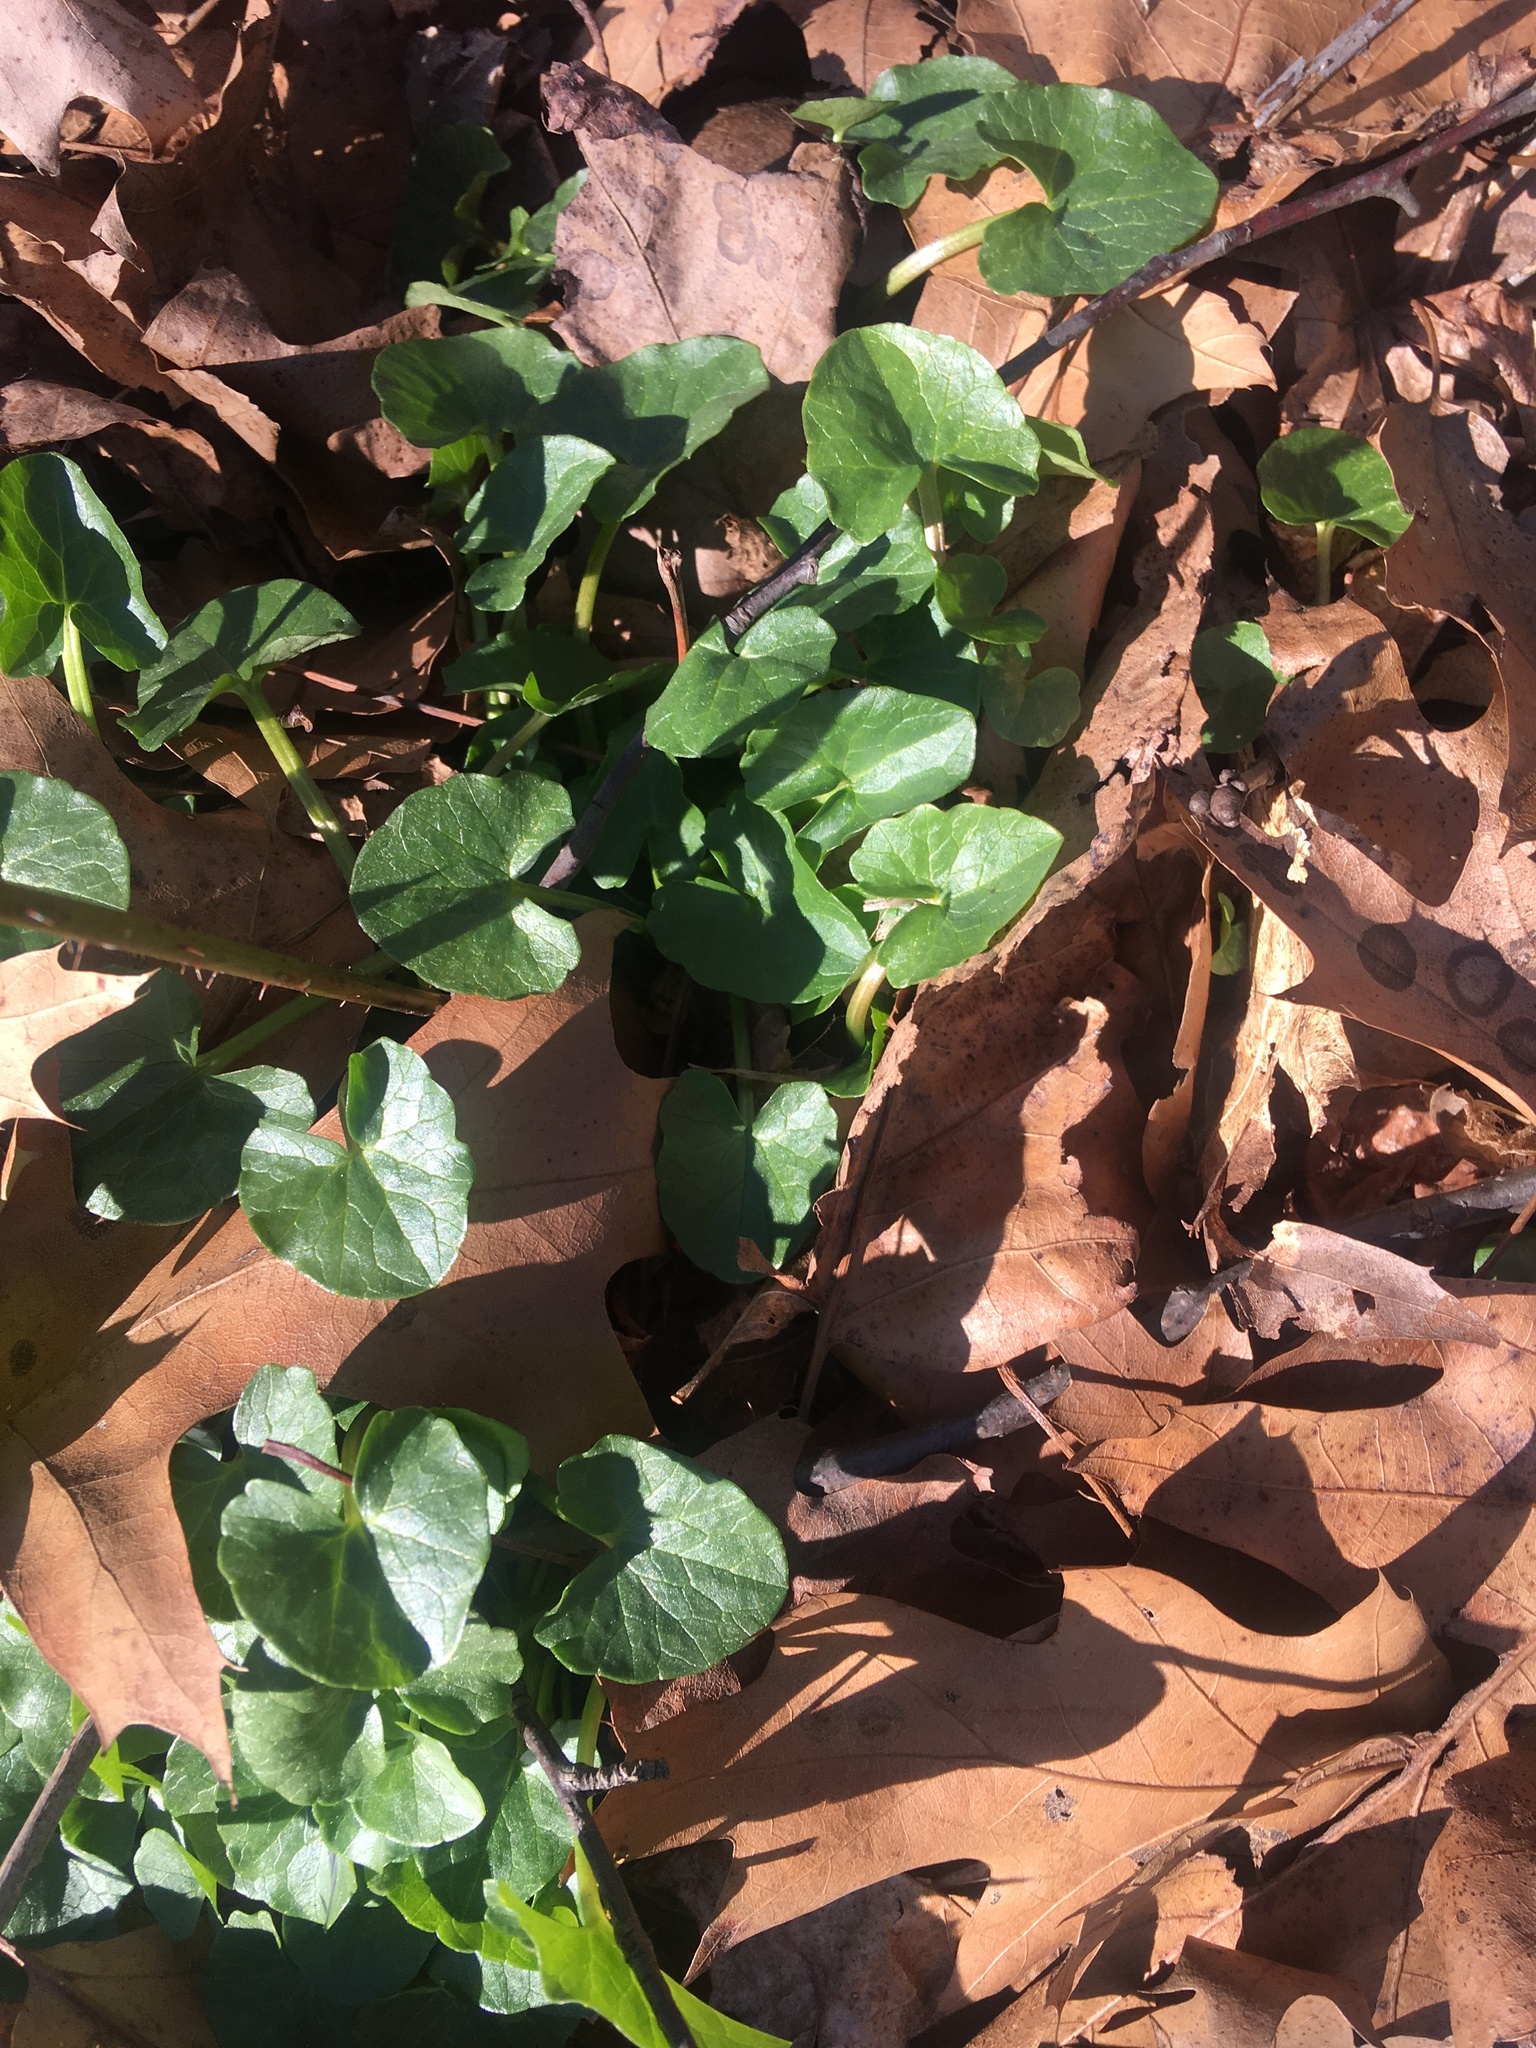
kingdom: Plantae
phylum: Tracheophyta
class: Magnoliopsida
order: Ranunculales
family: Ranunculaceae
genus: Ficaria
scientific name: Ficaria verna
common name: Lesser celandine
